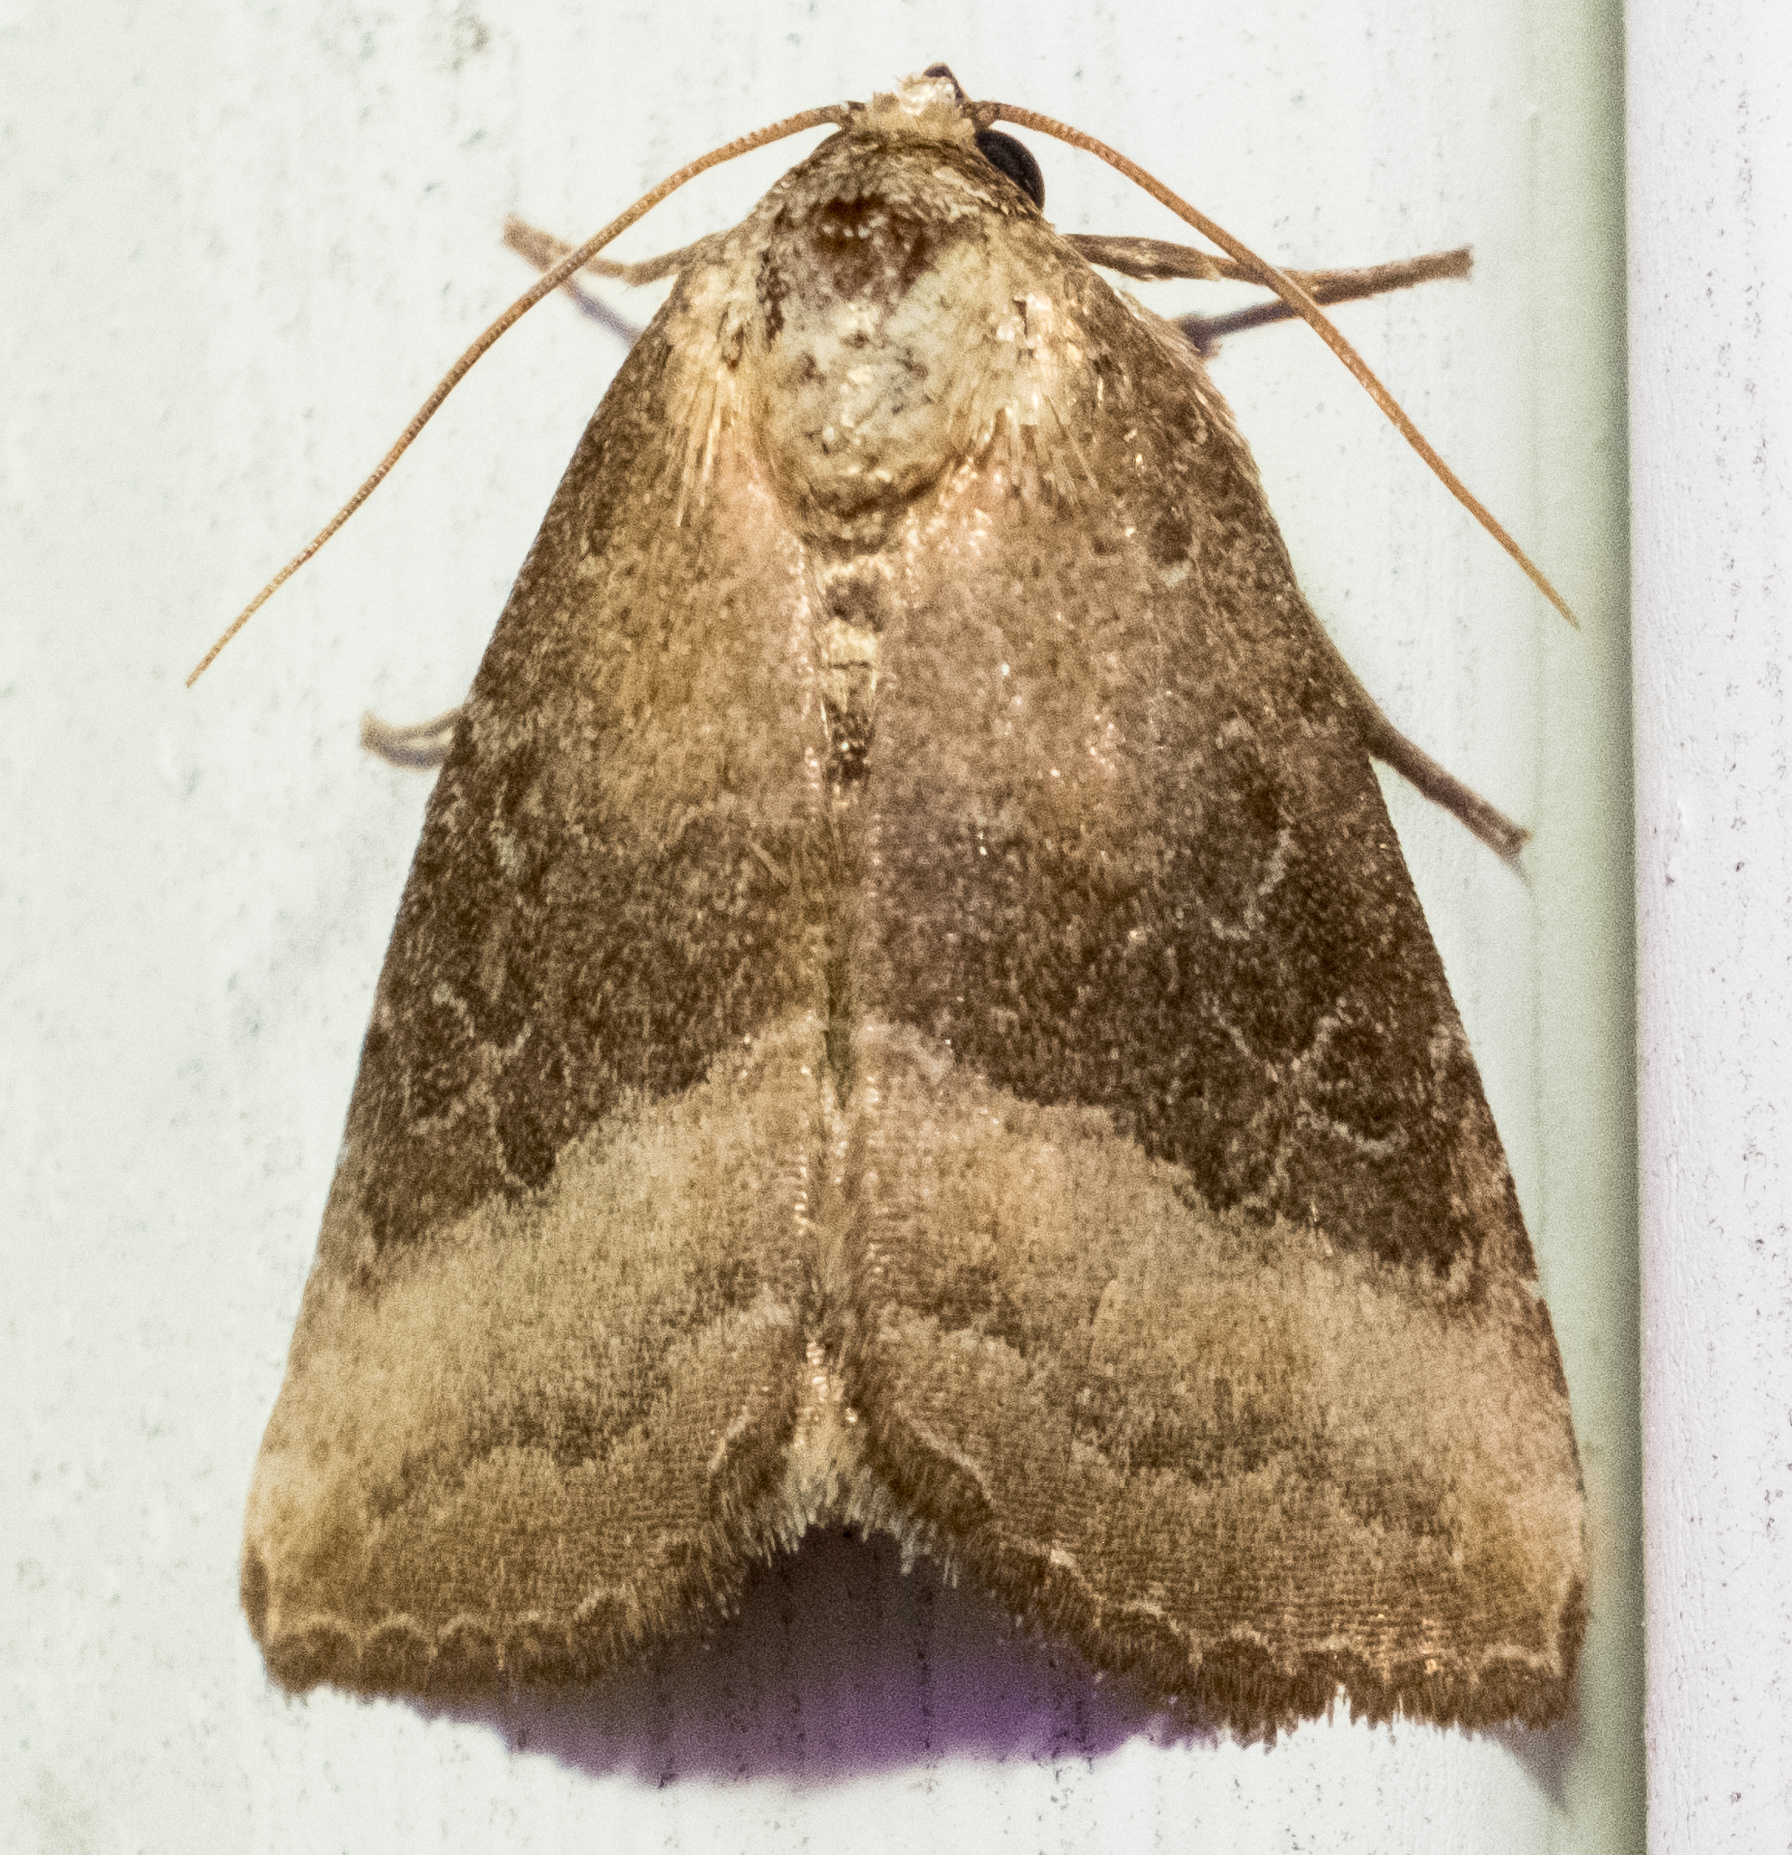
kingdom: Animalia
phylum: Arthropoda
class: Insecta
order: Lepidoptera
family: Noctuidae
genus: Ogdoconta
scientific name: Ogdoconta cinereola
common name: Common pinkband
